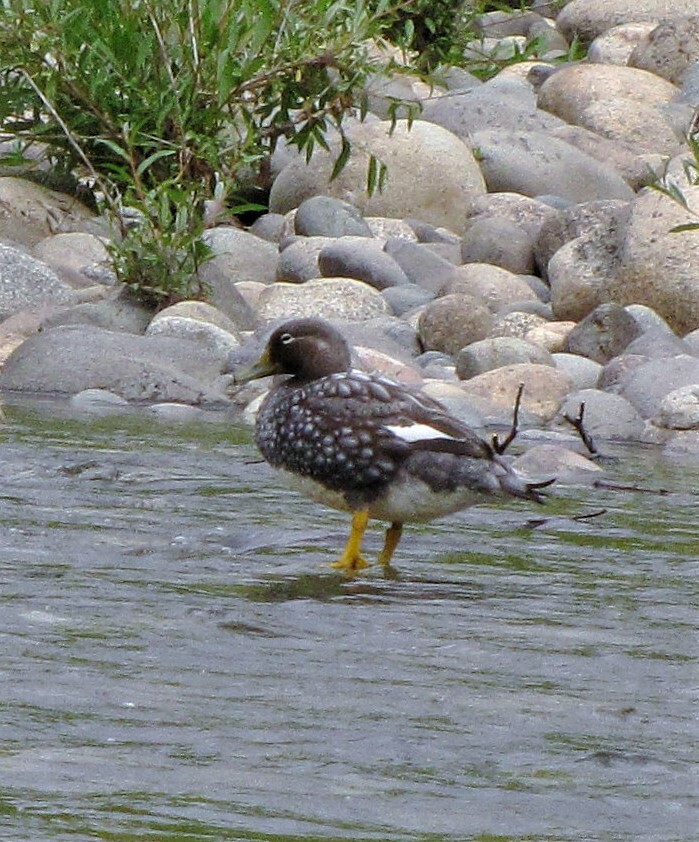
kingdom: Animalia
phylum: Chordata
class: Aves
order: Anseriformes
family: Anatidae
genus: Tachyeres
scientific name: Tachyeres patachonicus
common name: Flying steamer duck
